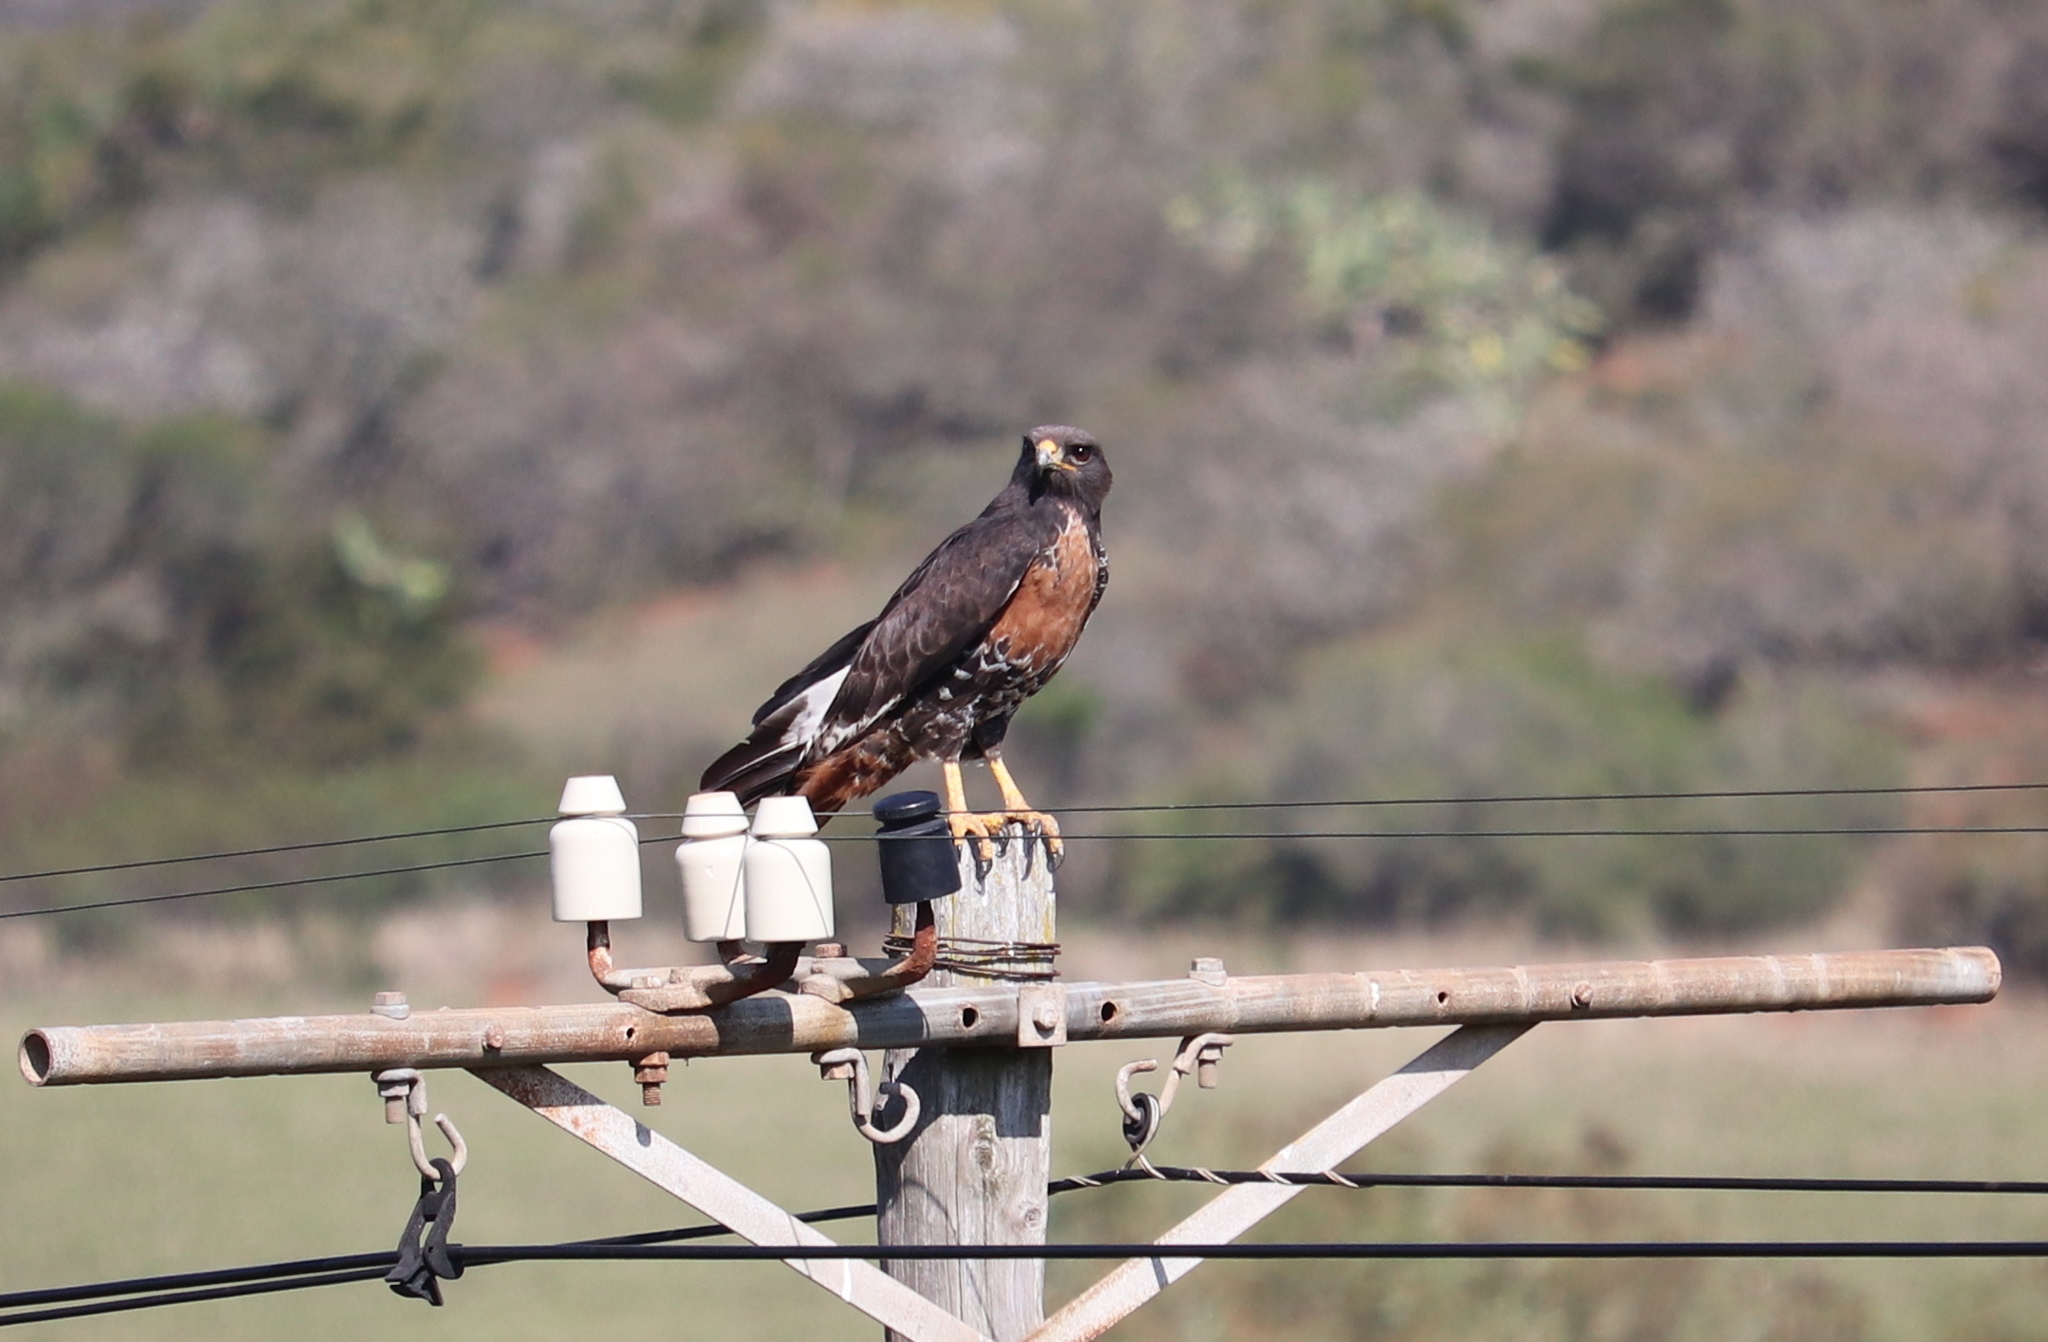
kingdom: Animalia
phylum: Chordata
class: Aves
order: Accipitriformes
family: Accipitridae
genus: Buteo
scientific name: Buteo rufofuscus
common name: Jackal buzzard
